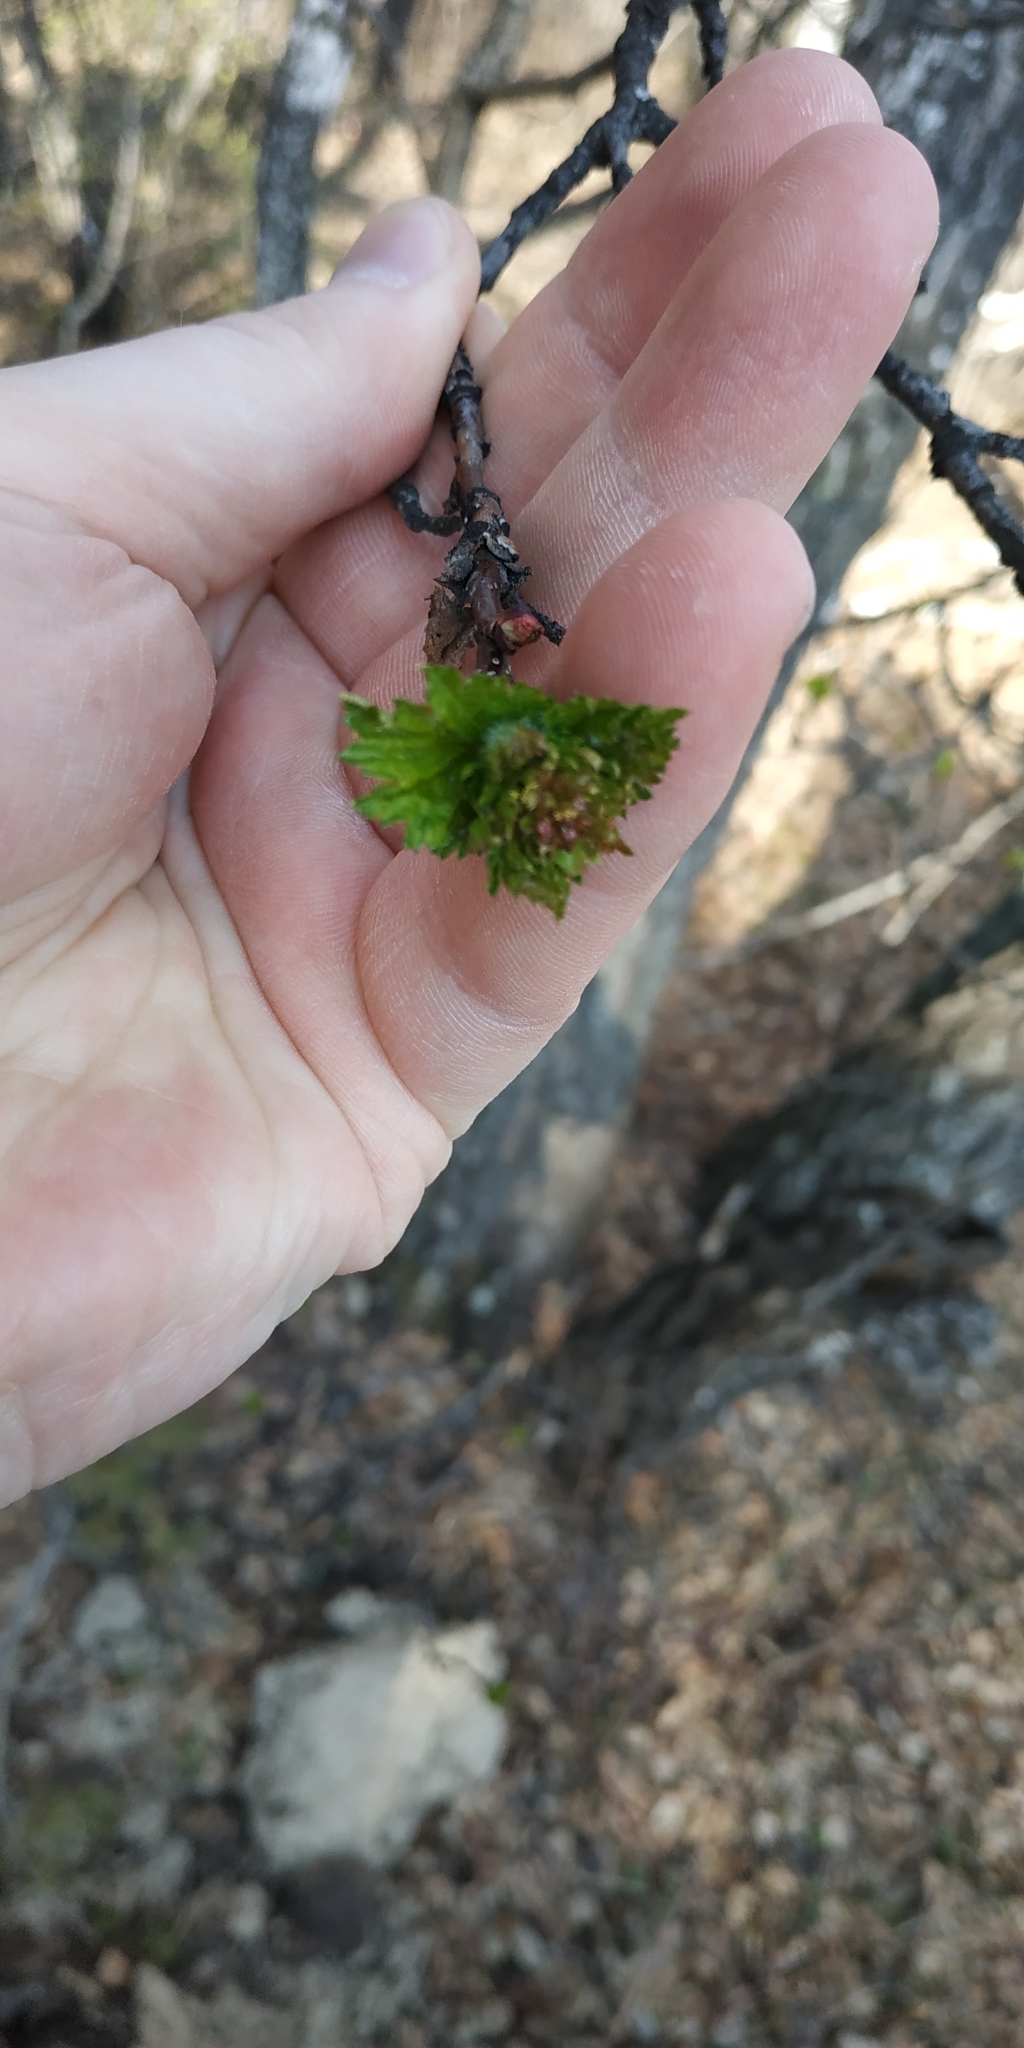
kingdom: Plantae
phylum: Tracheophyta
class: Magnoliopsida
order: Fagales
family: Betulaceae
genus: Betula
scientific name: Betula pendula
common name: Silver birch
